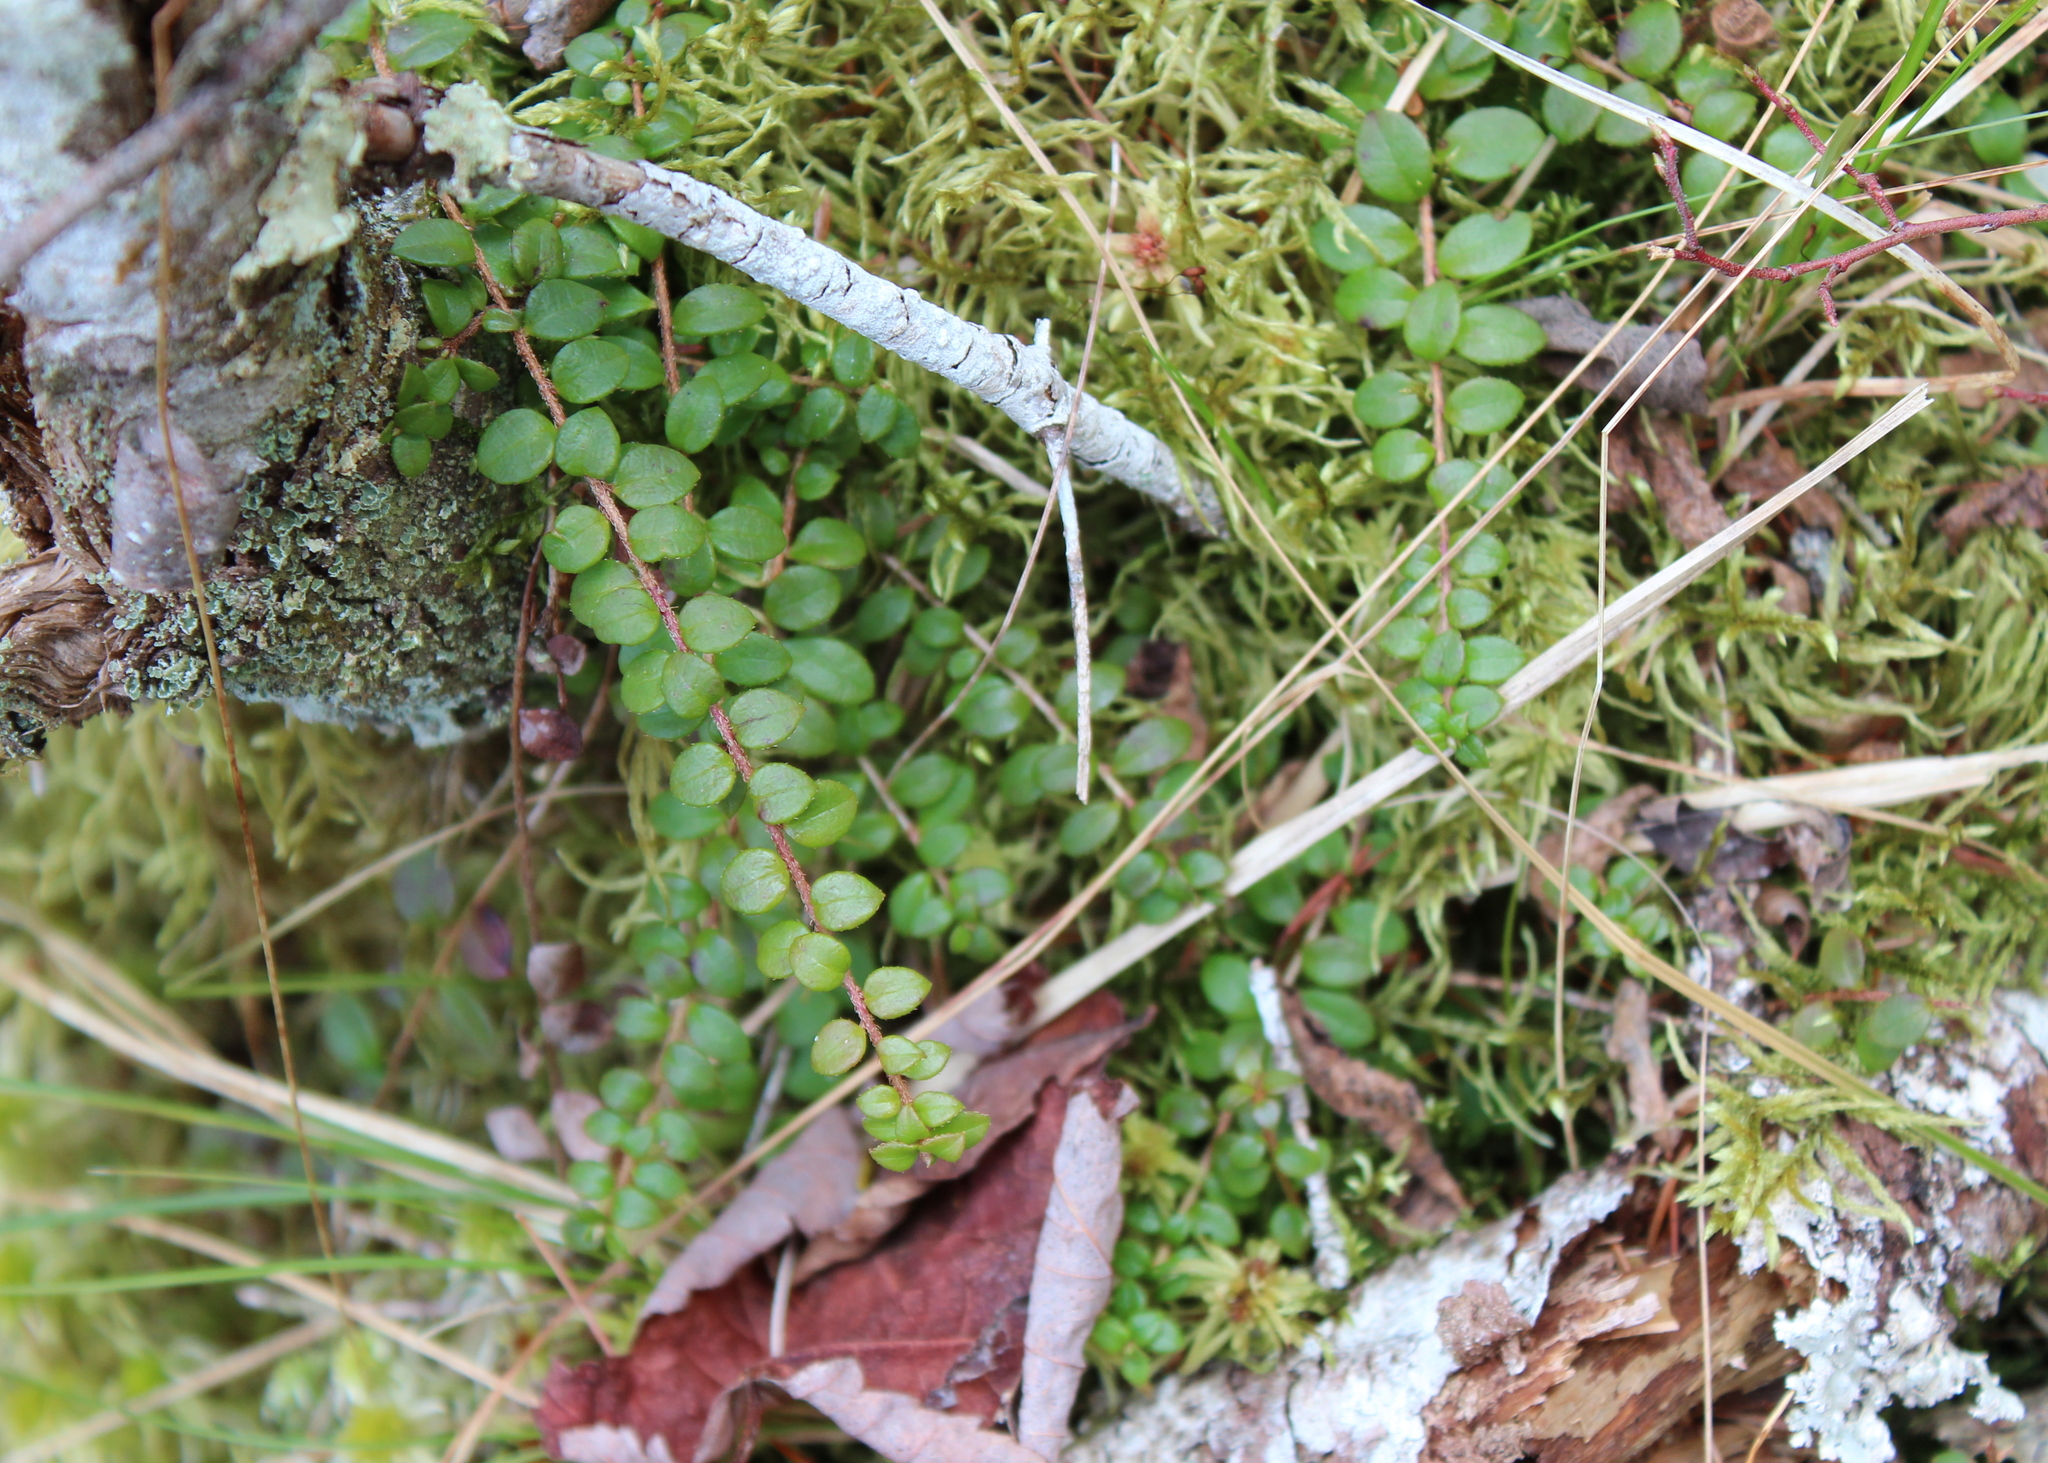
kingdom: Plantae
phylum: Tracheophyta
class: Magnoliopsida
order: Ericales
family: Ericaceae
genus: Gaultheria
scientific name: Gaultheria hispidula
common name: Cancer wintergreen
